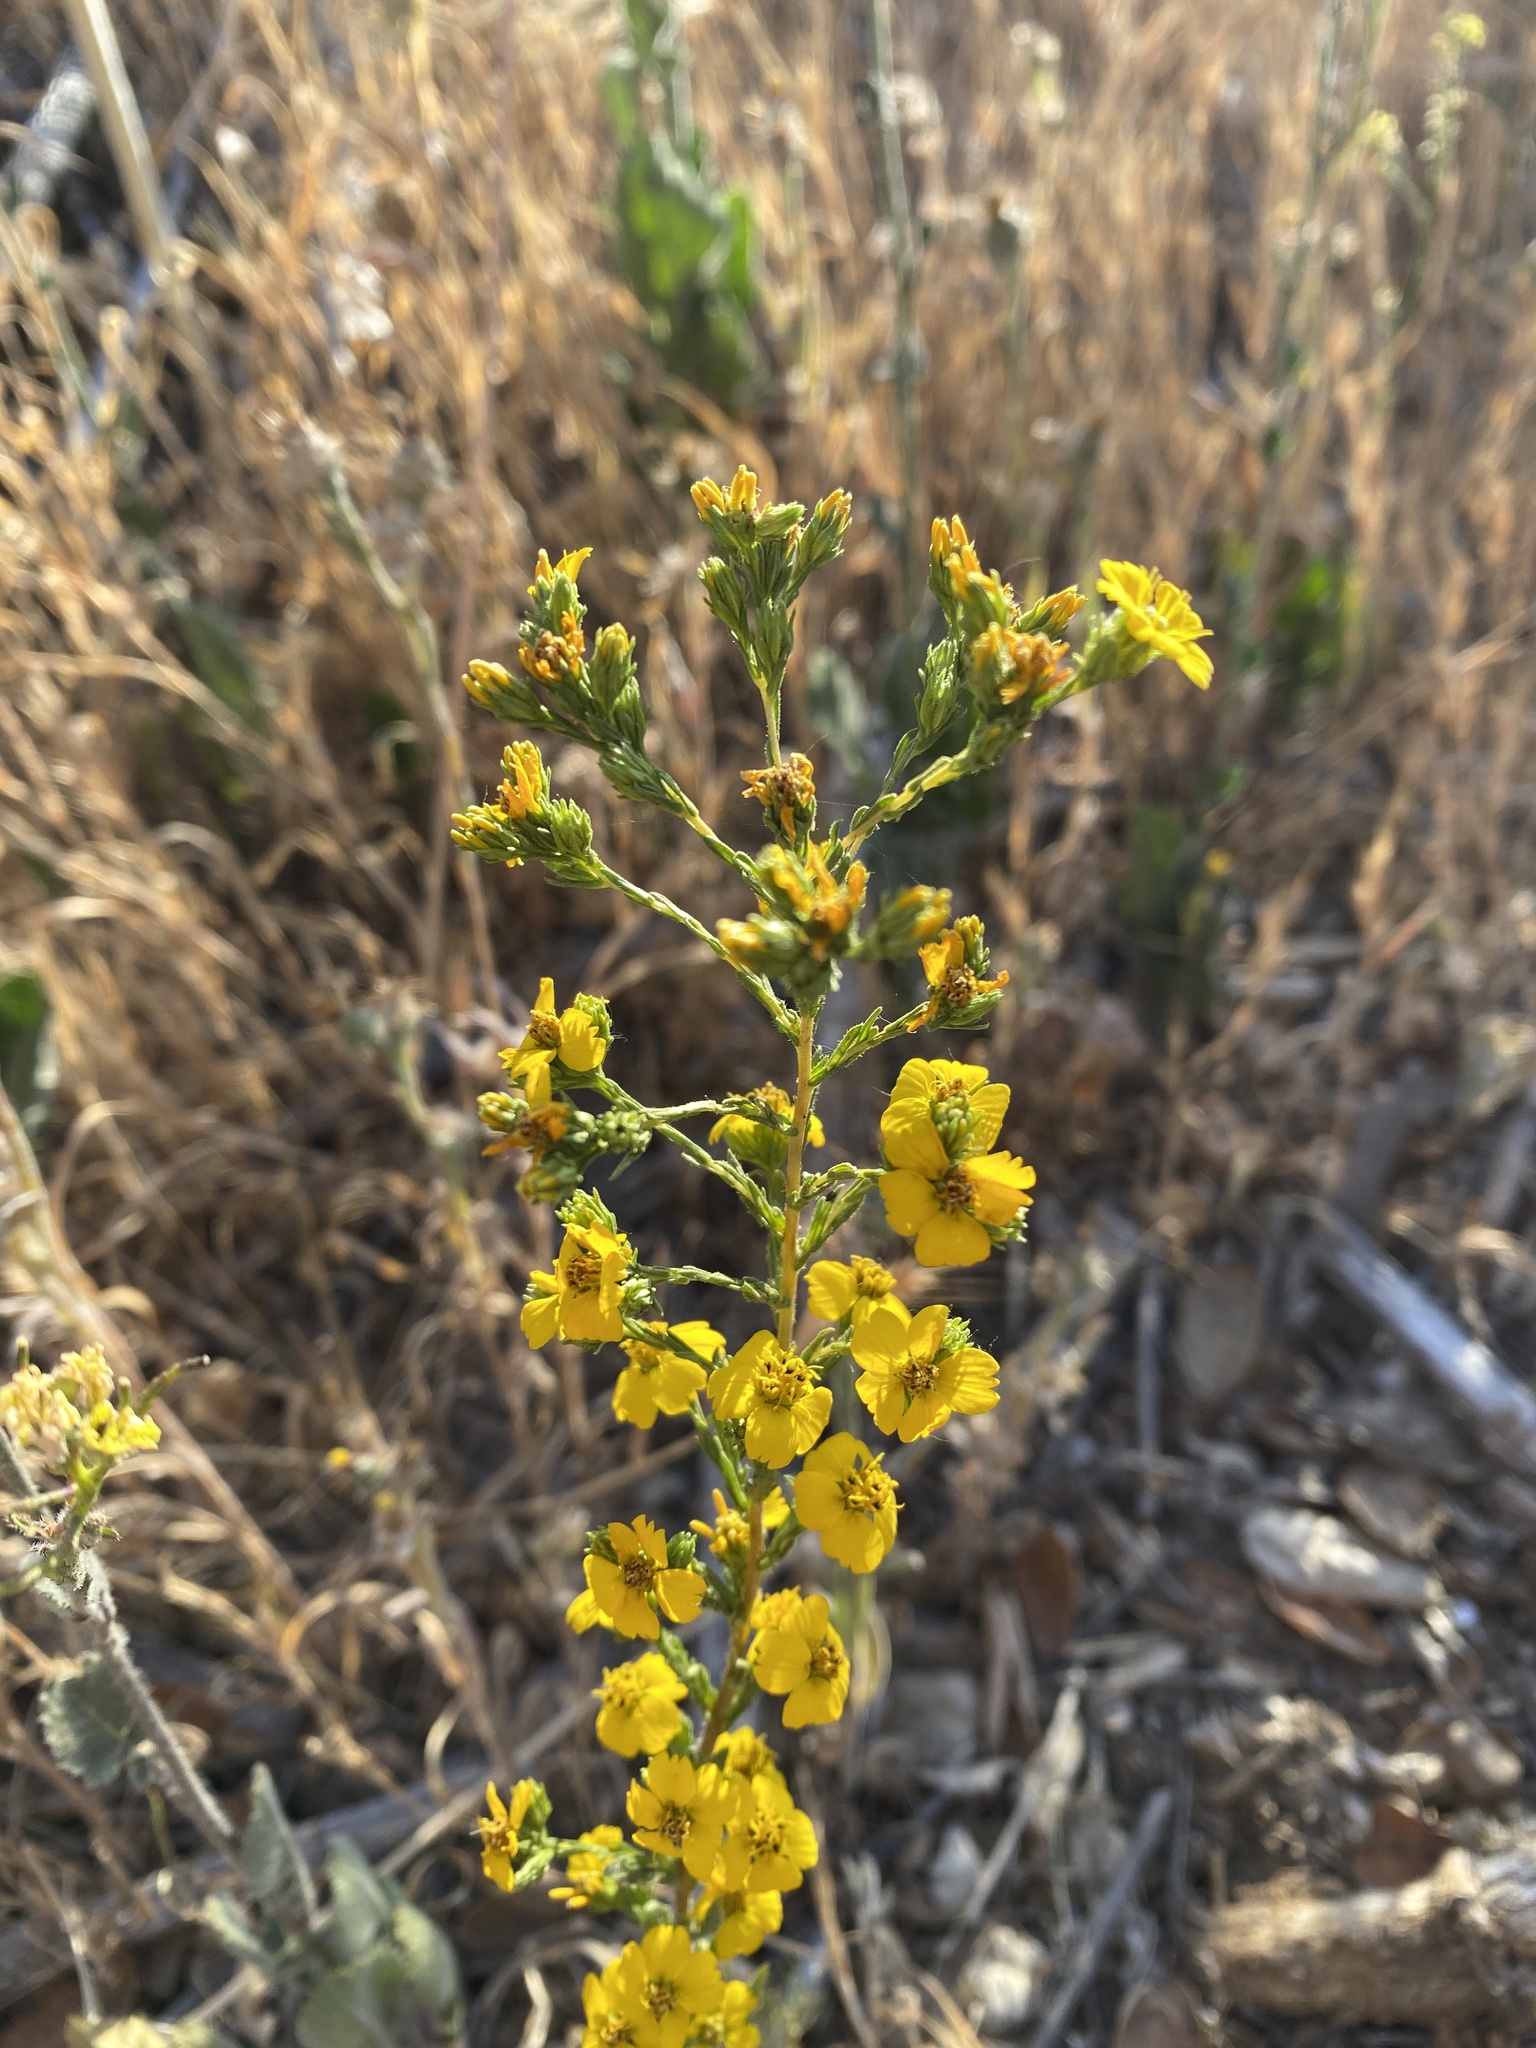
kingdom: Plantae
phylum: Tracheophyta
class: Magnoliopsida
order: Asterales
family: Asteraceae
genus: Deinandra
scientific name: Deinandra fasciculata
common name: Clustered tarweed
